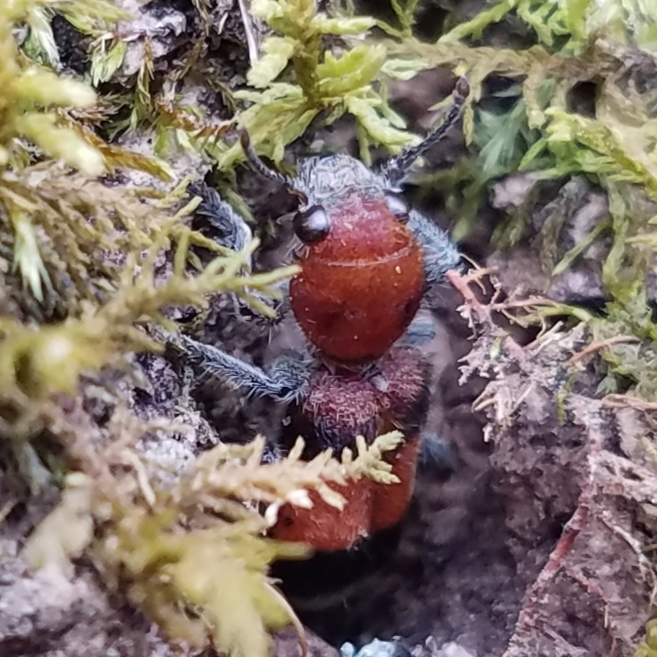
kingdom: Animalia
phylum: Arthropoda
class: Insecta
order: Coleoptera
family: Cleridae
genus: Enoclerus
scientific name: Enoclerus ichneumoneus
